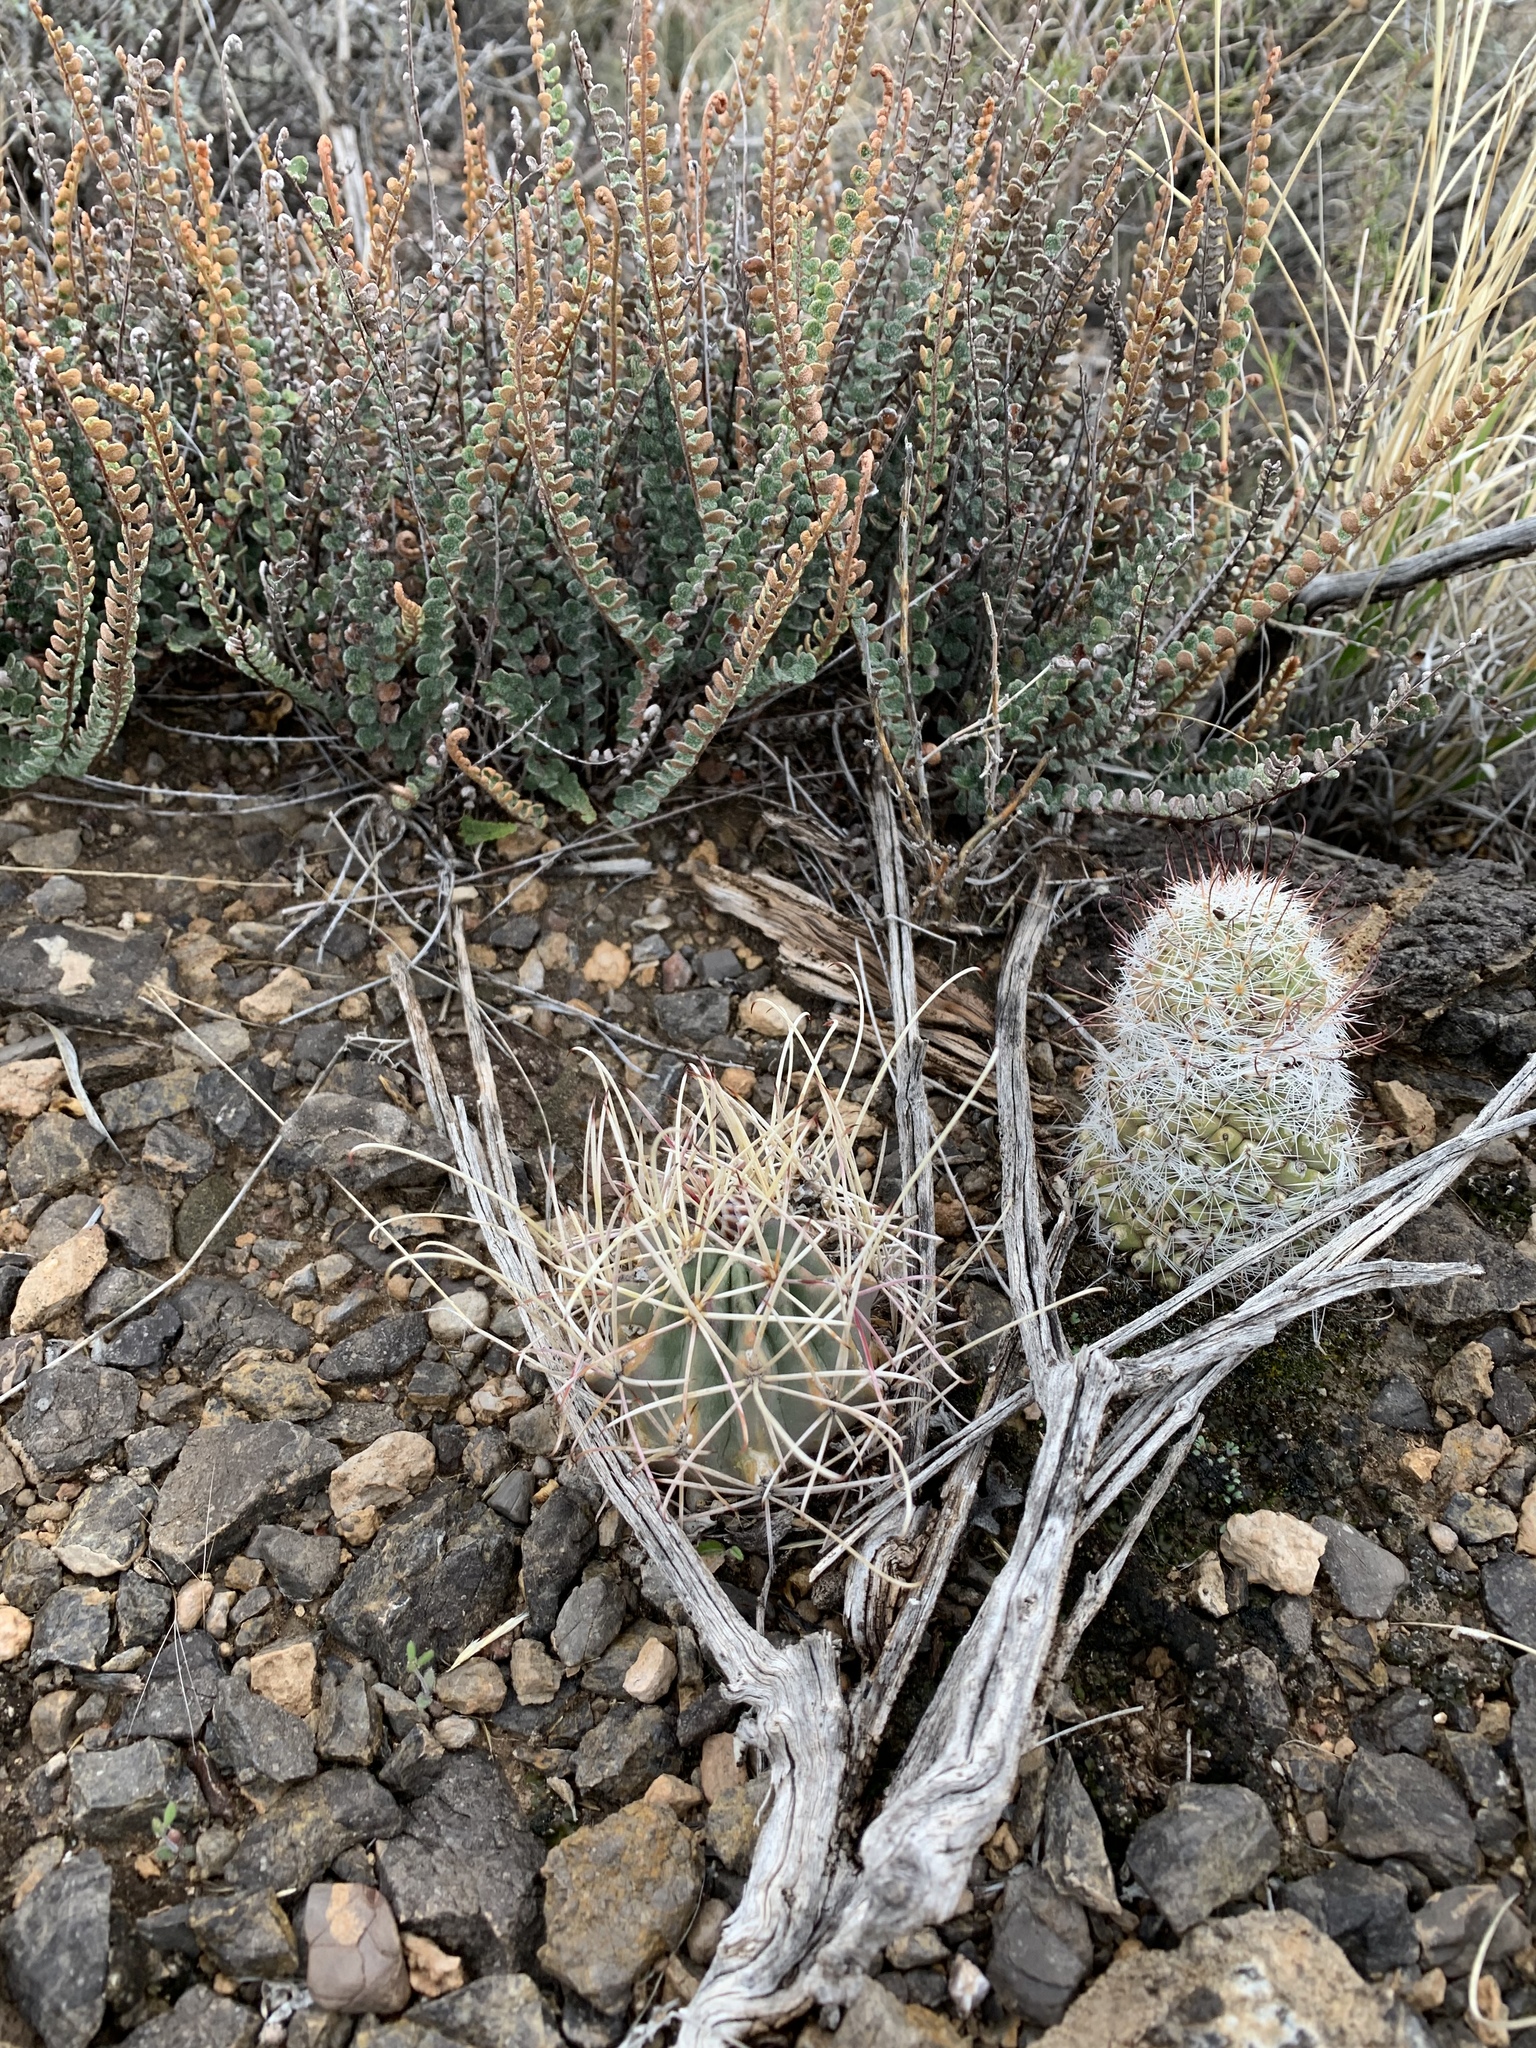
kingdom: Plantae
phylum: Tracheophyta
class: Magnoliopsida
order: Caryophyllales
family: Cactaceae
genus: Ferocactus
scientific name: Ferocactus uncinatus
